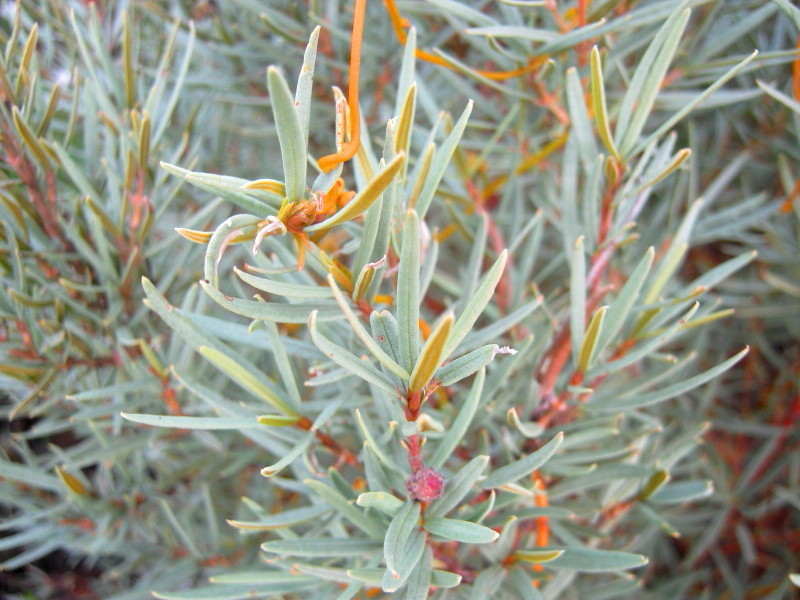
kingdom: Plantae
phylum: Tracheophyta
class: Magnoliopsida
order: Cornales
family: Grubbiaceae
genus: Grubbia
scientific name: Grubbia tomentosa
